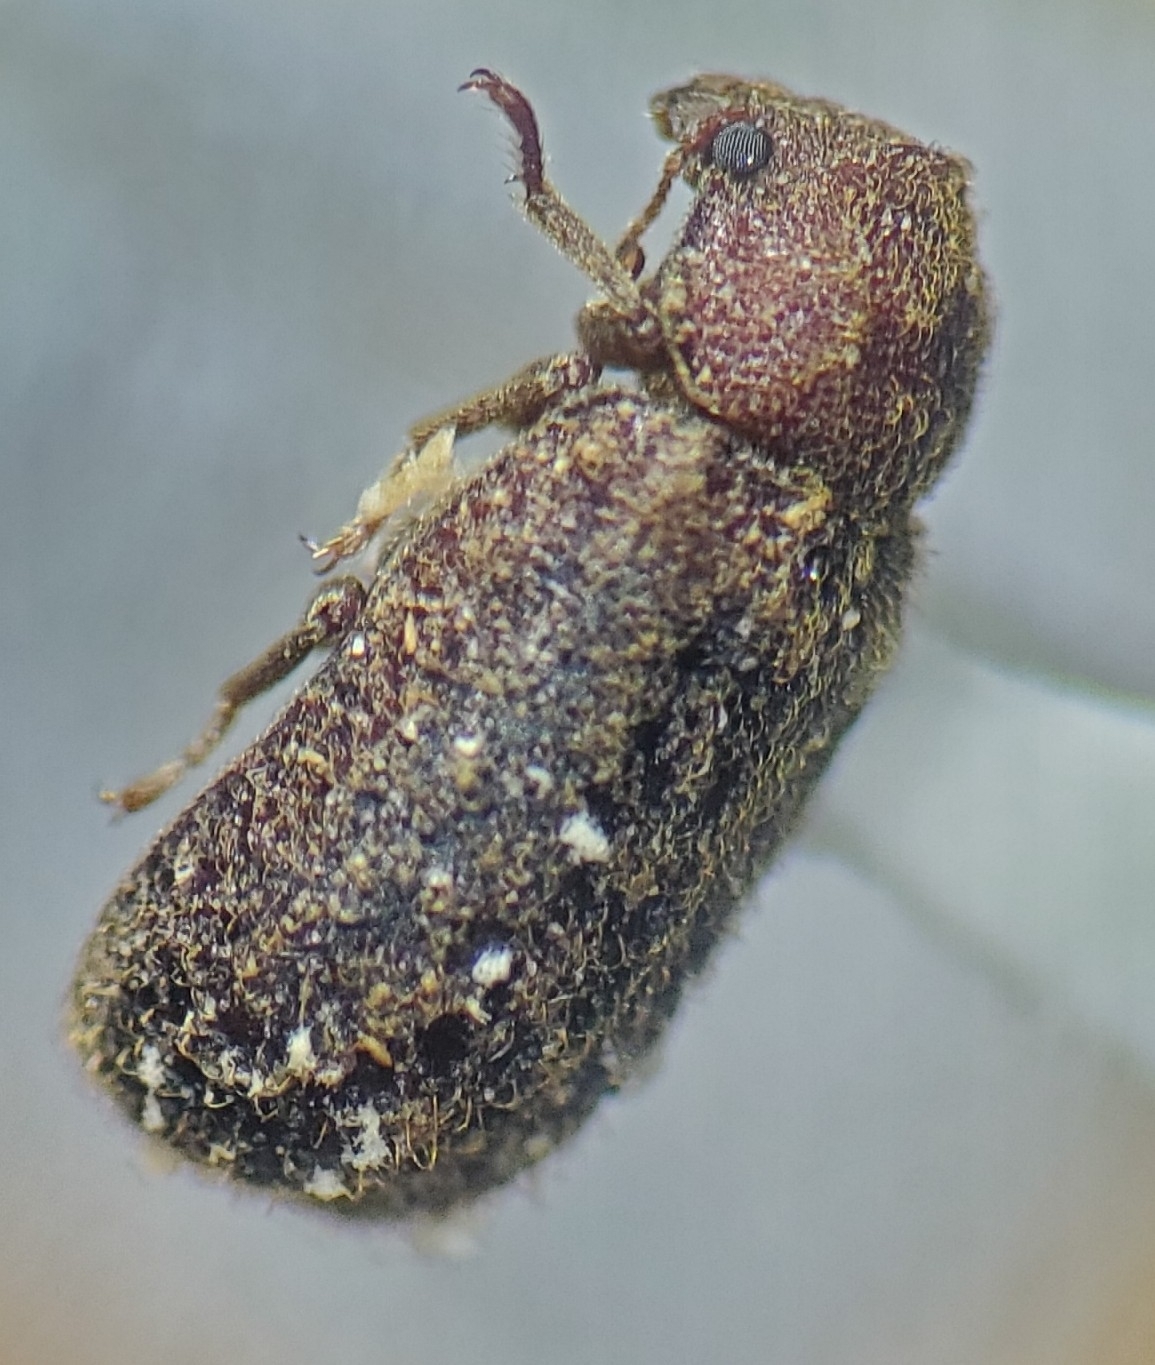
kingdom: Animalia
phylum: Arthropoda
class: Insecta
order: Coleoptera
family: Bostrichidae
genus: Endecatomus
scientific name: Endecatomus rugosus
